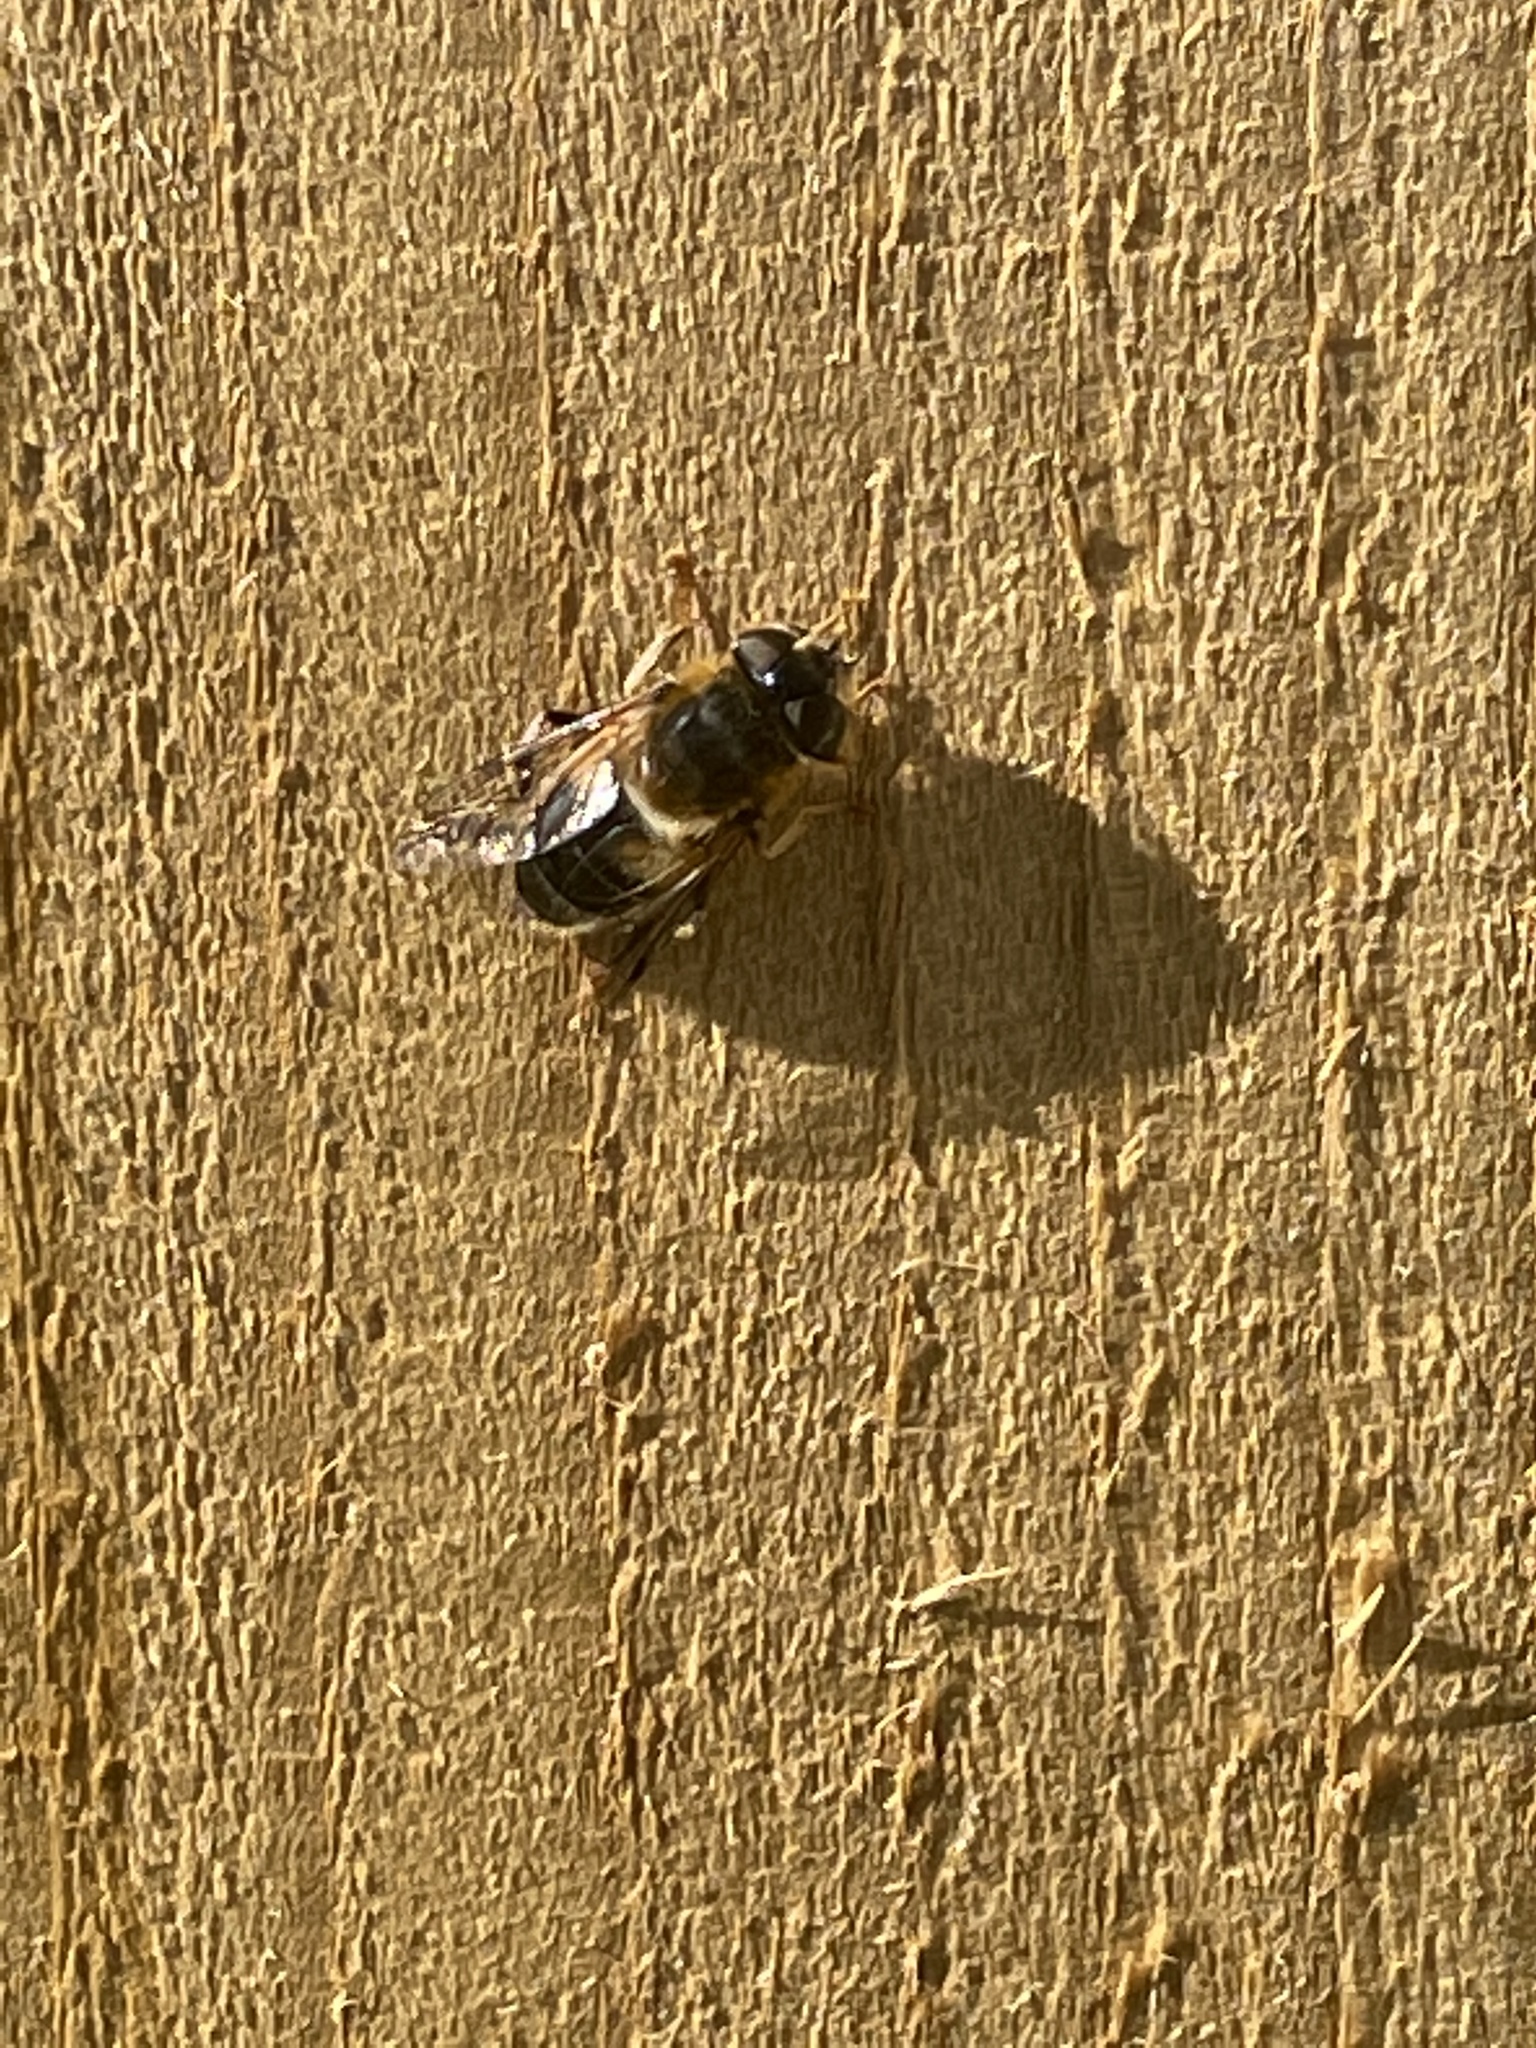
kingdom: Animalia
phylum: Arthropoda
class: Insecta
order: Diptera
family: Syrphidae
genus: Eristalis
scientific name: Eristalis pertinax
